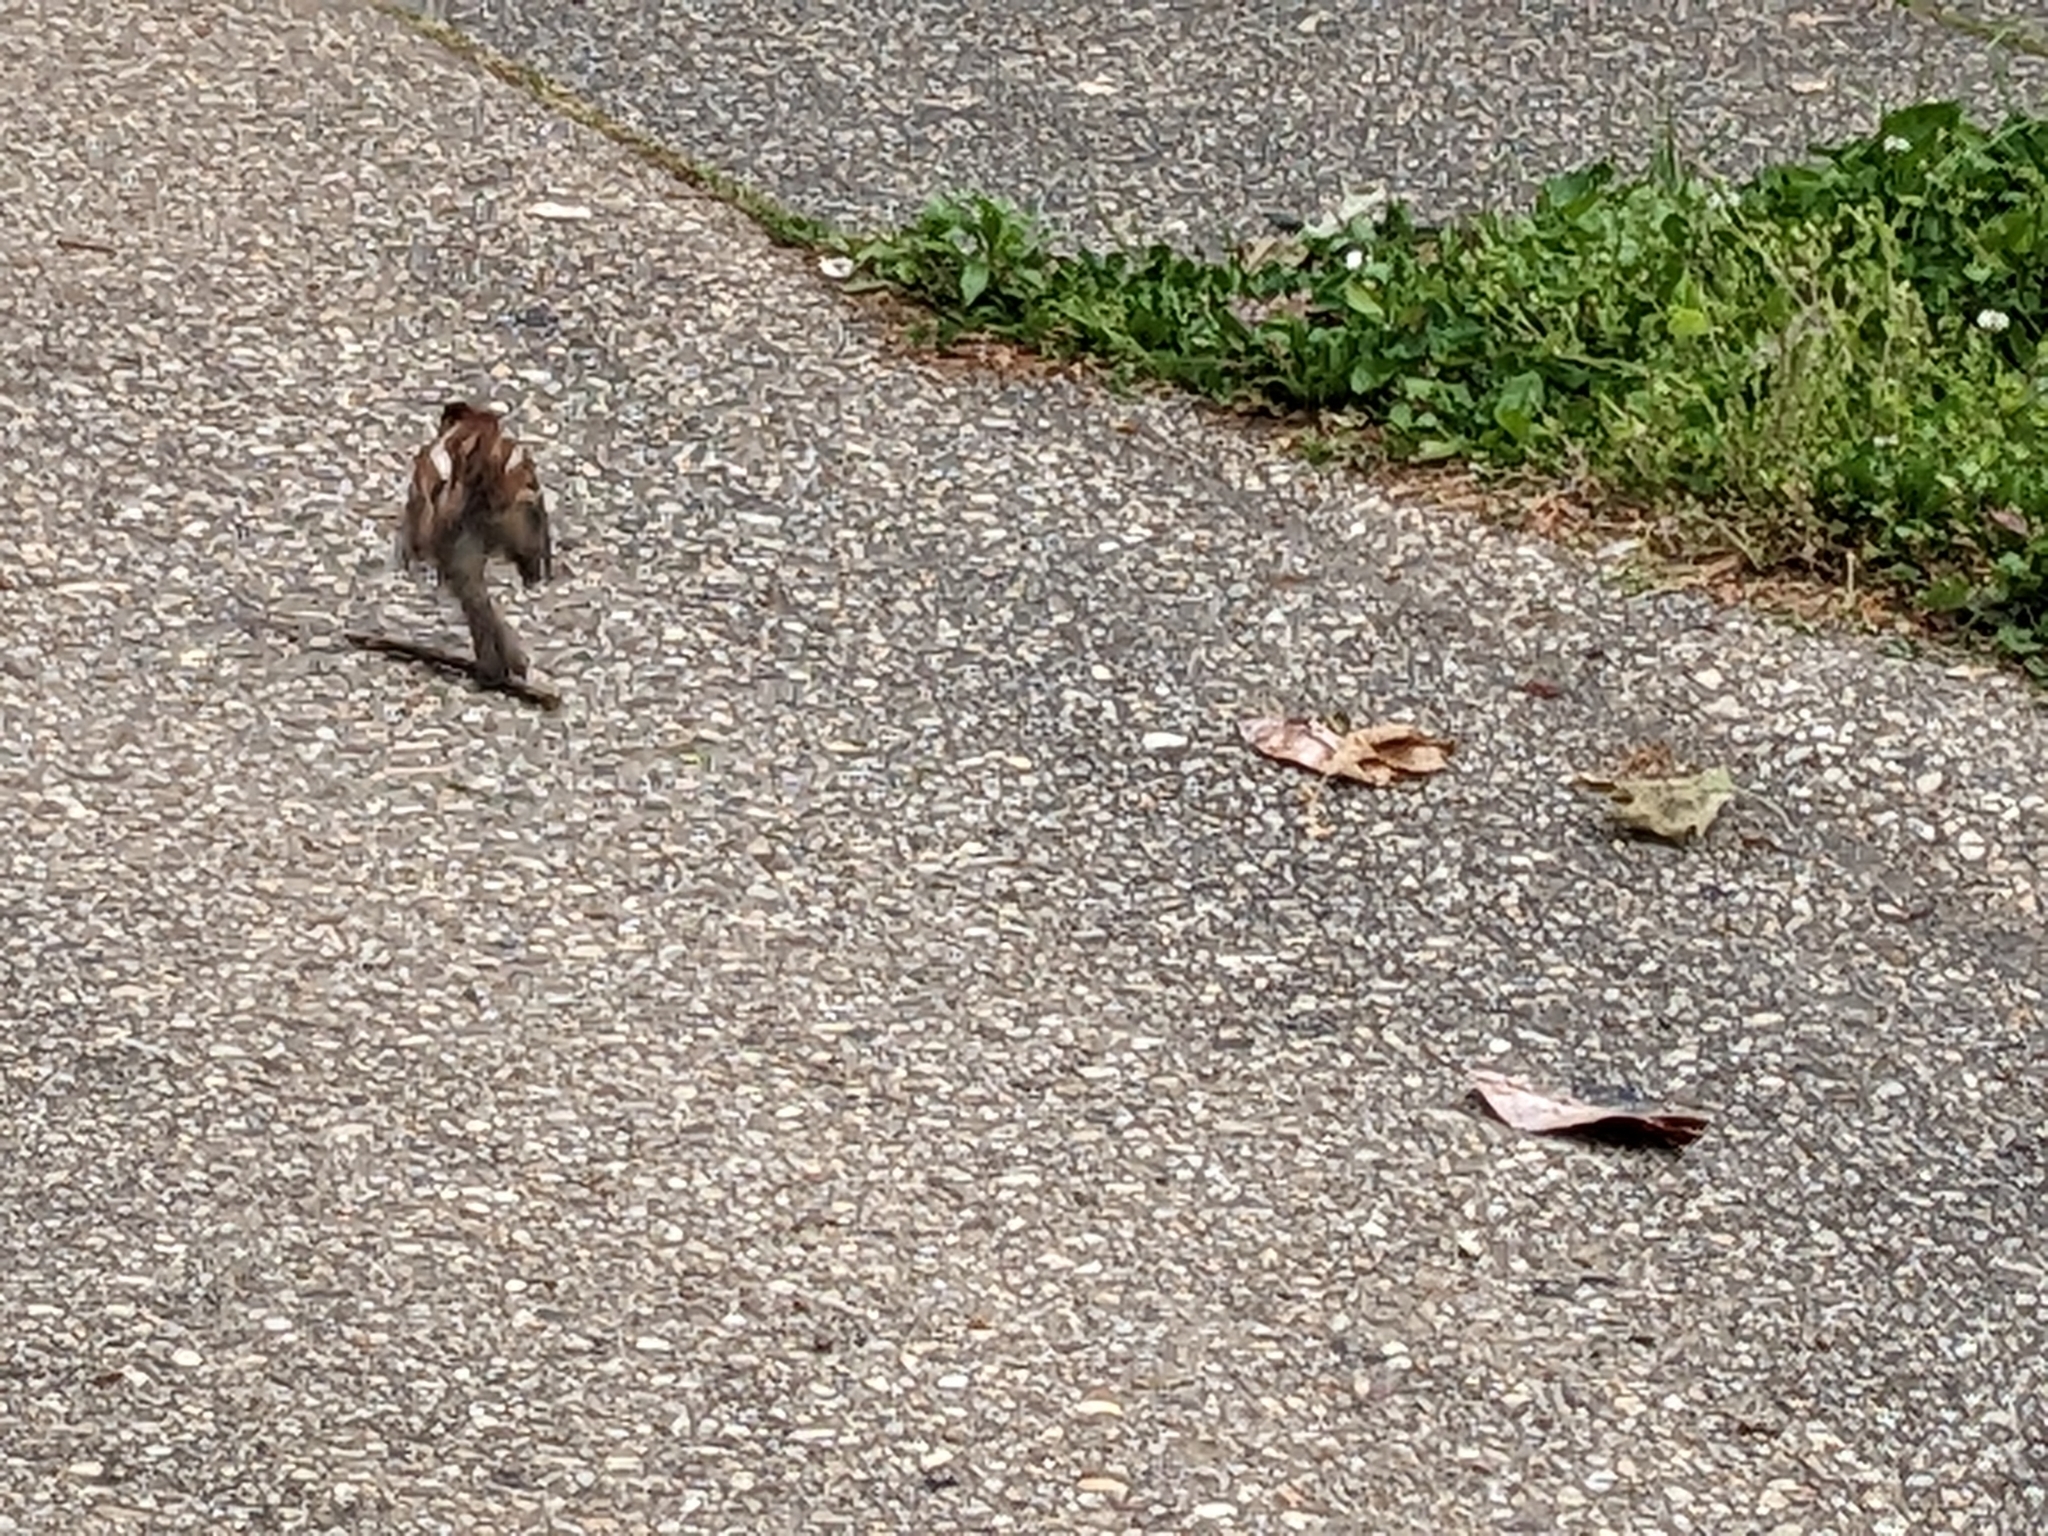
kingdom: Animalia
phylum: Chordata
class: Aves
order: Passeriformes
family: Passeridae
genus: Passer
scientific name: Passer domesticus
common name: House sparrow
